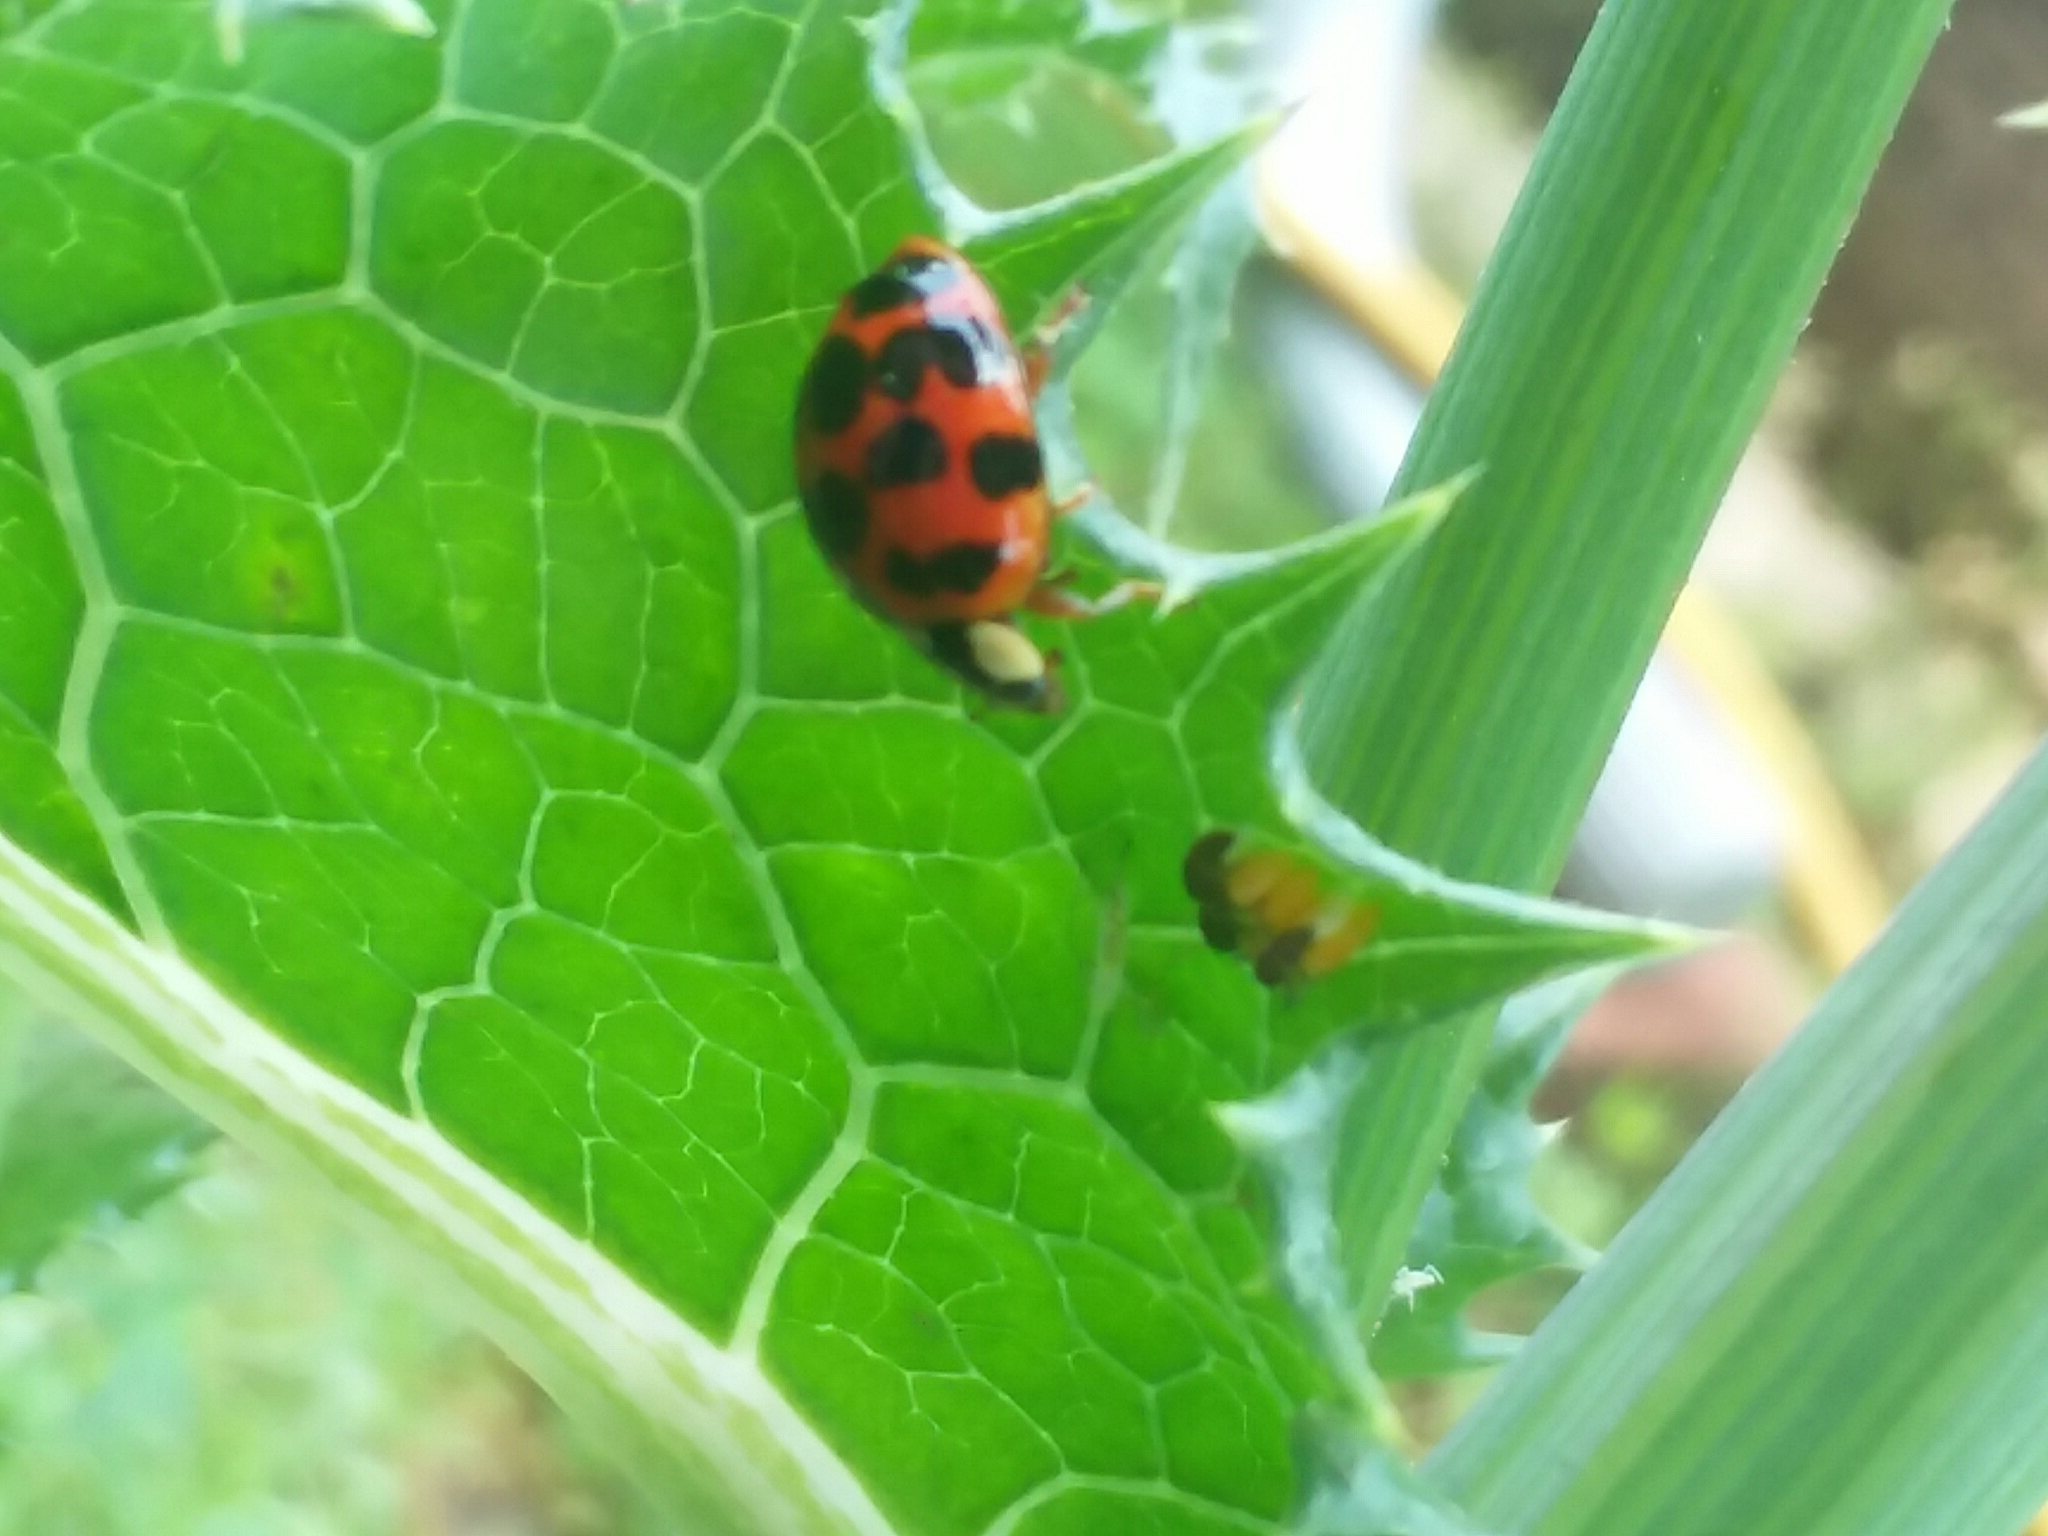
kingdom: Animalia
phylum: Arthropoda
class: Insecta
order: Coleoptera
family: Coccinellidae
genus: Harmonia
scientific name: Harmonia axyridis
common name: Harlequin ladybird
